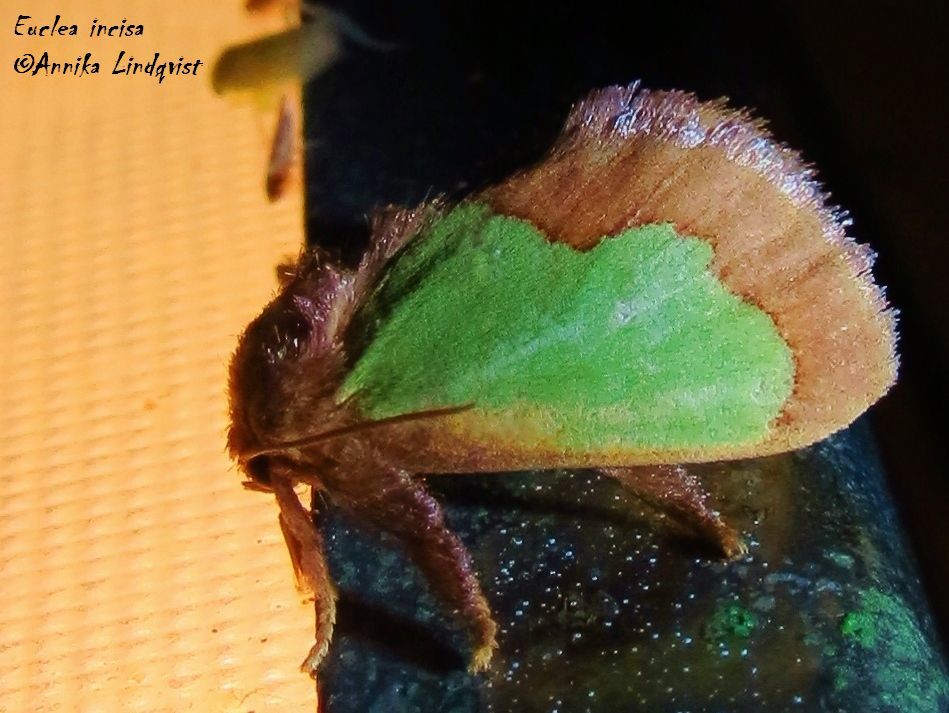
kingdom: Animalia
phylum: Arthropoda
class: Insecta
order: Lepidoptera
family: Limacodidae
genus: Euclea
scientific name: Euclea incisa
